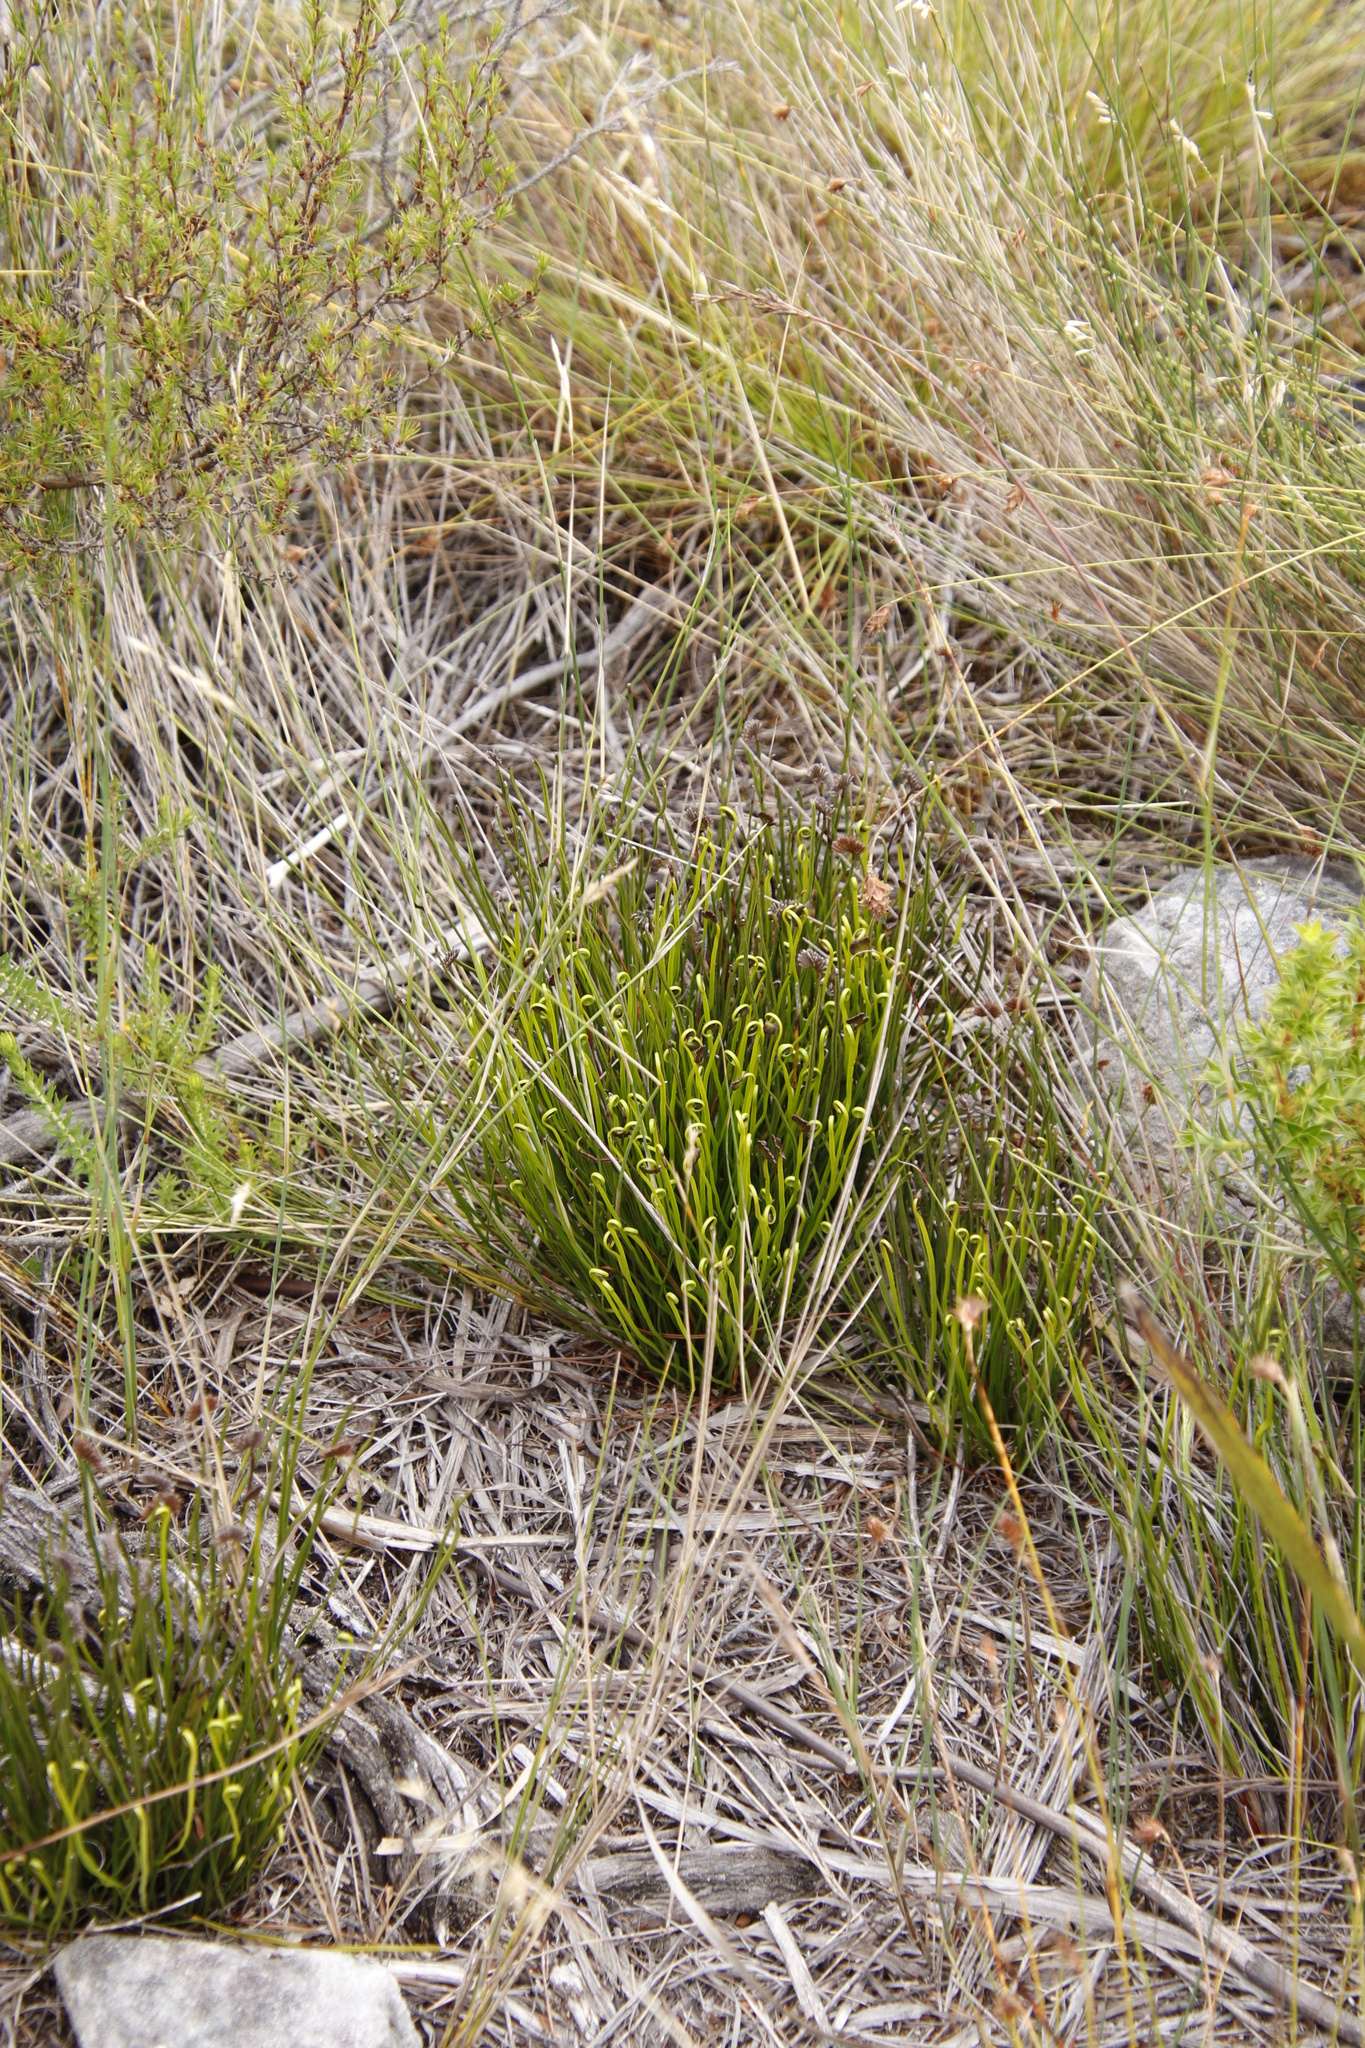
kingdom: Plantae
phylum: Tracheophyta
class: Polypodiopsida
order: Schizaeales
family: Schizaeaceae
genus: Schizaea
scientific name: Schizaea pectinata
